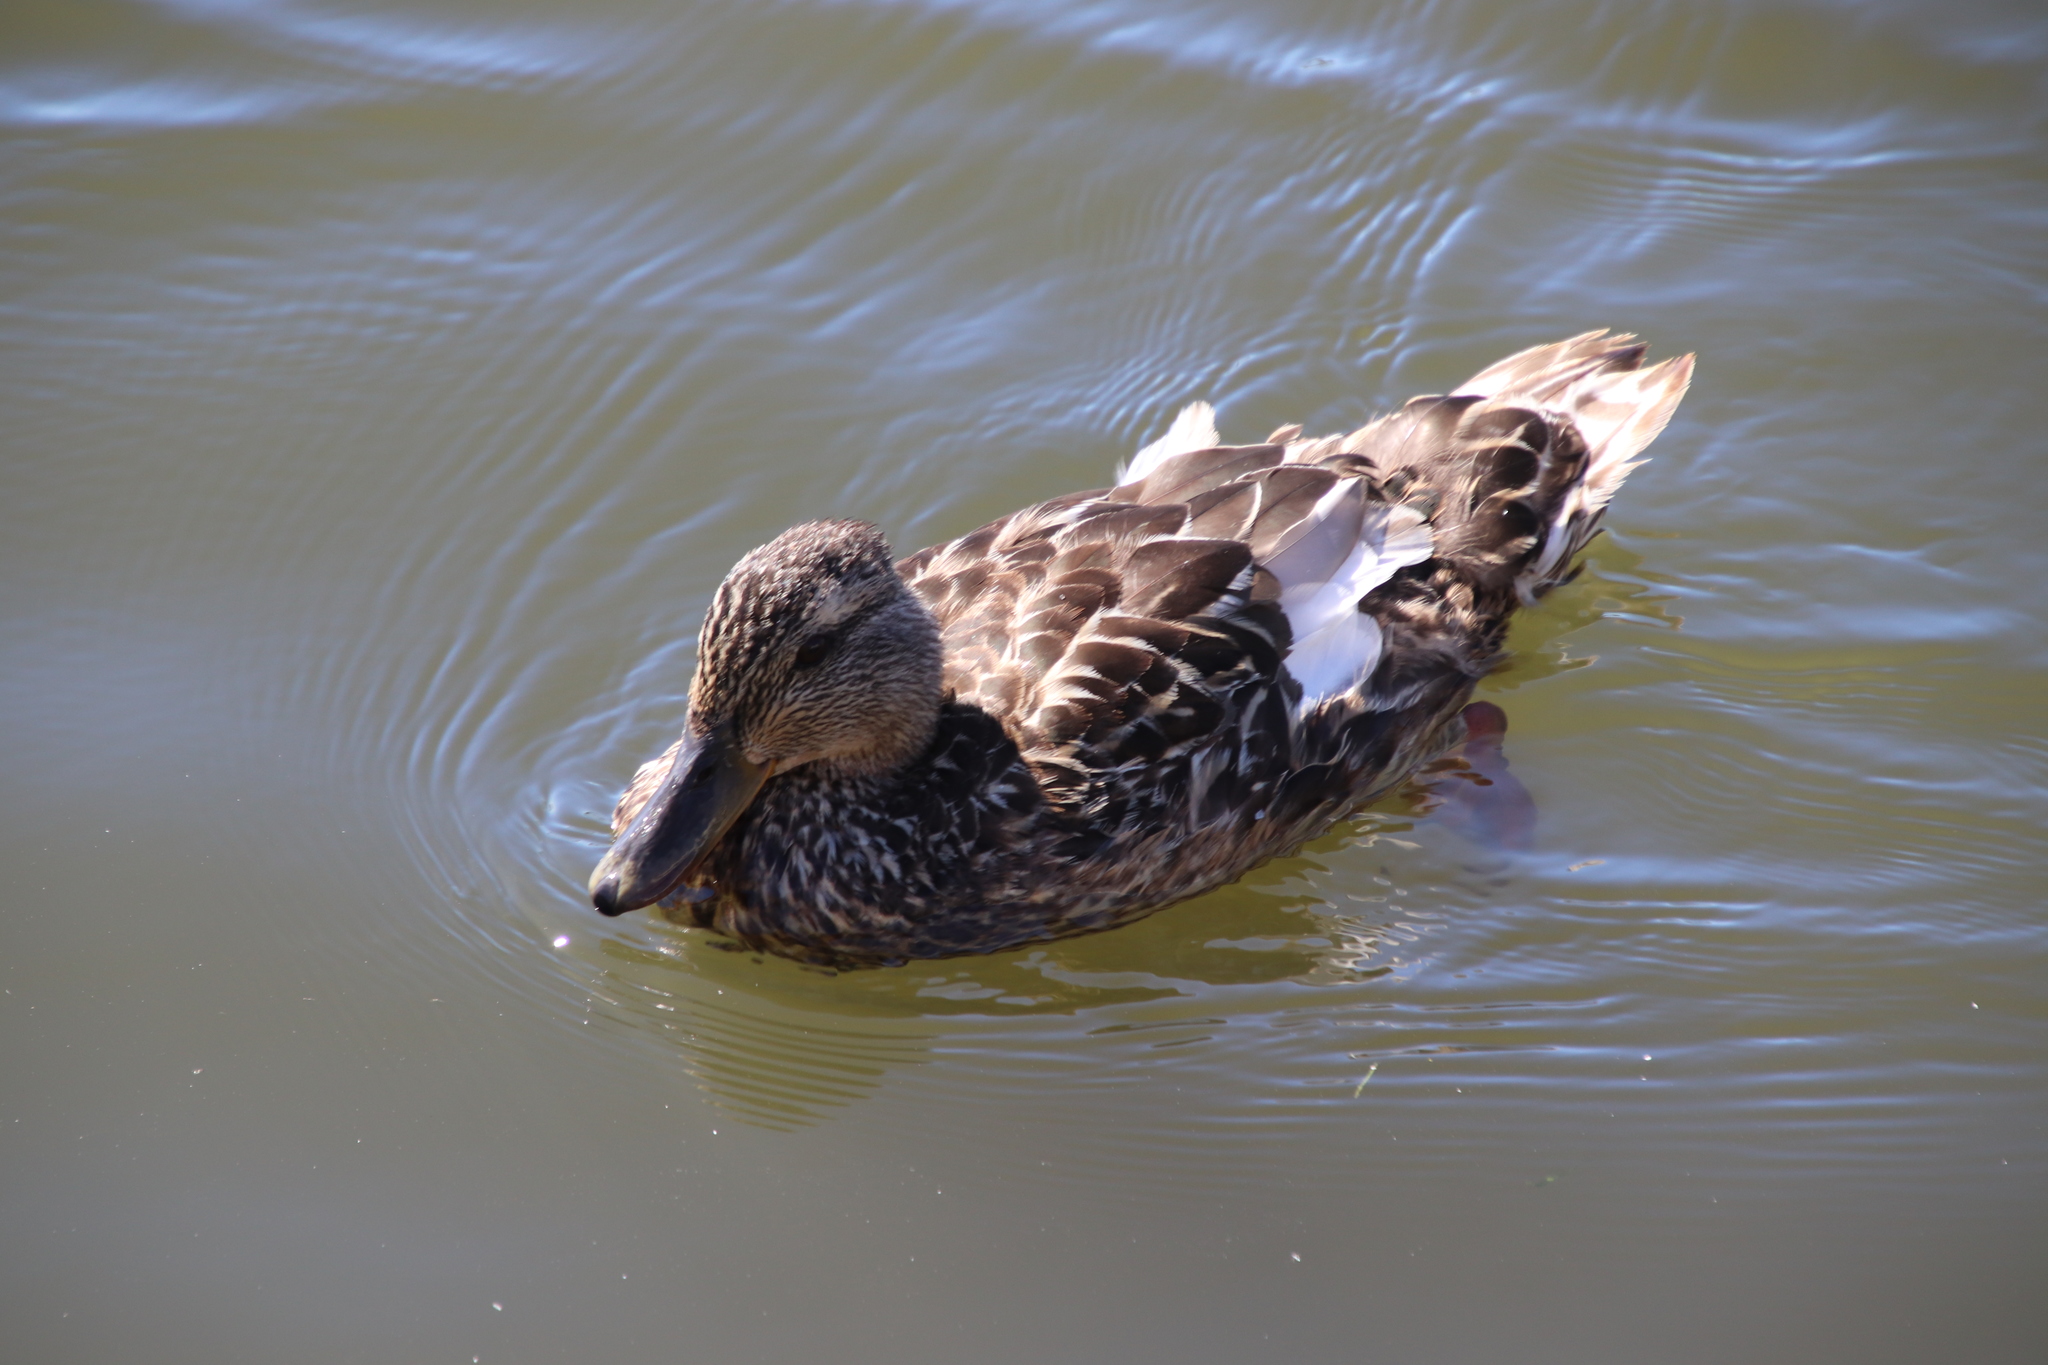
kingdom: Animalia
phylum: Chordata
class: Aves
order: Anseriformes
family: Anatidae
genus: Anas
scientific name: Anas platyrhynchos
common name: Mallard
